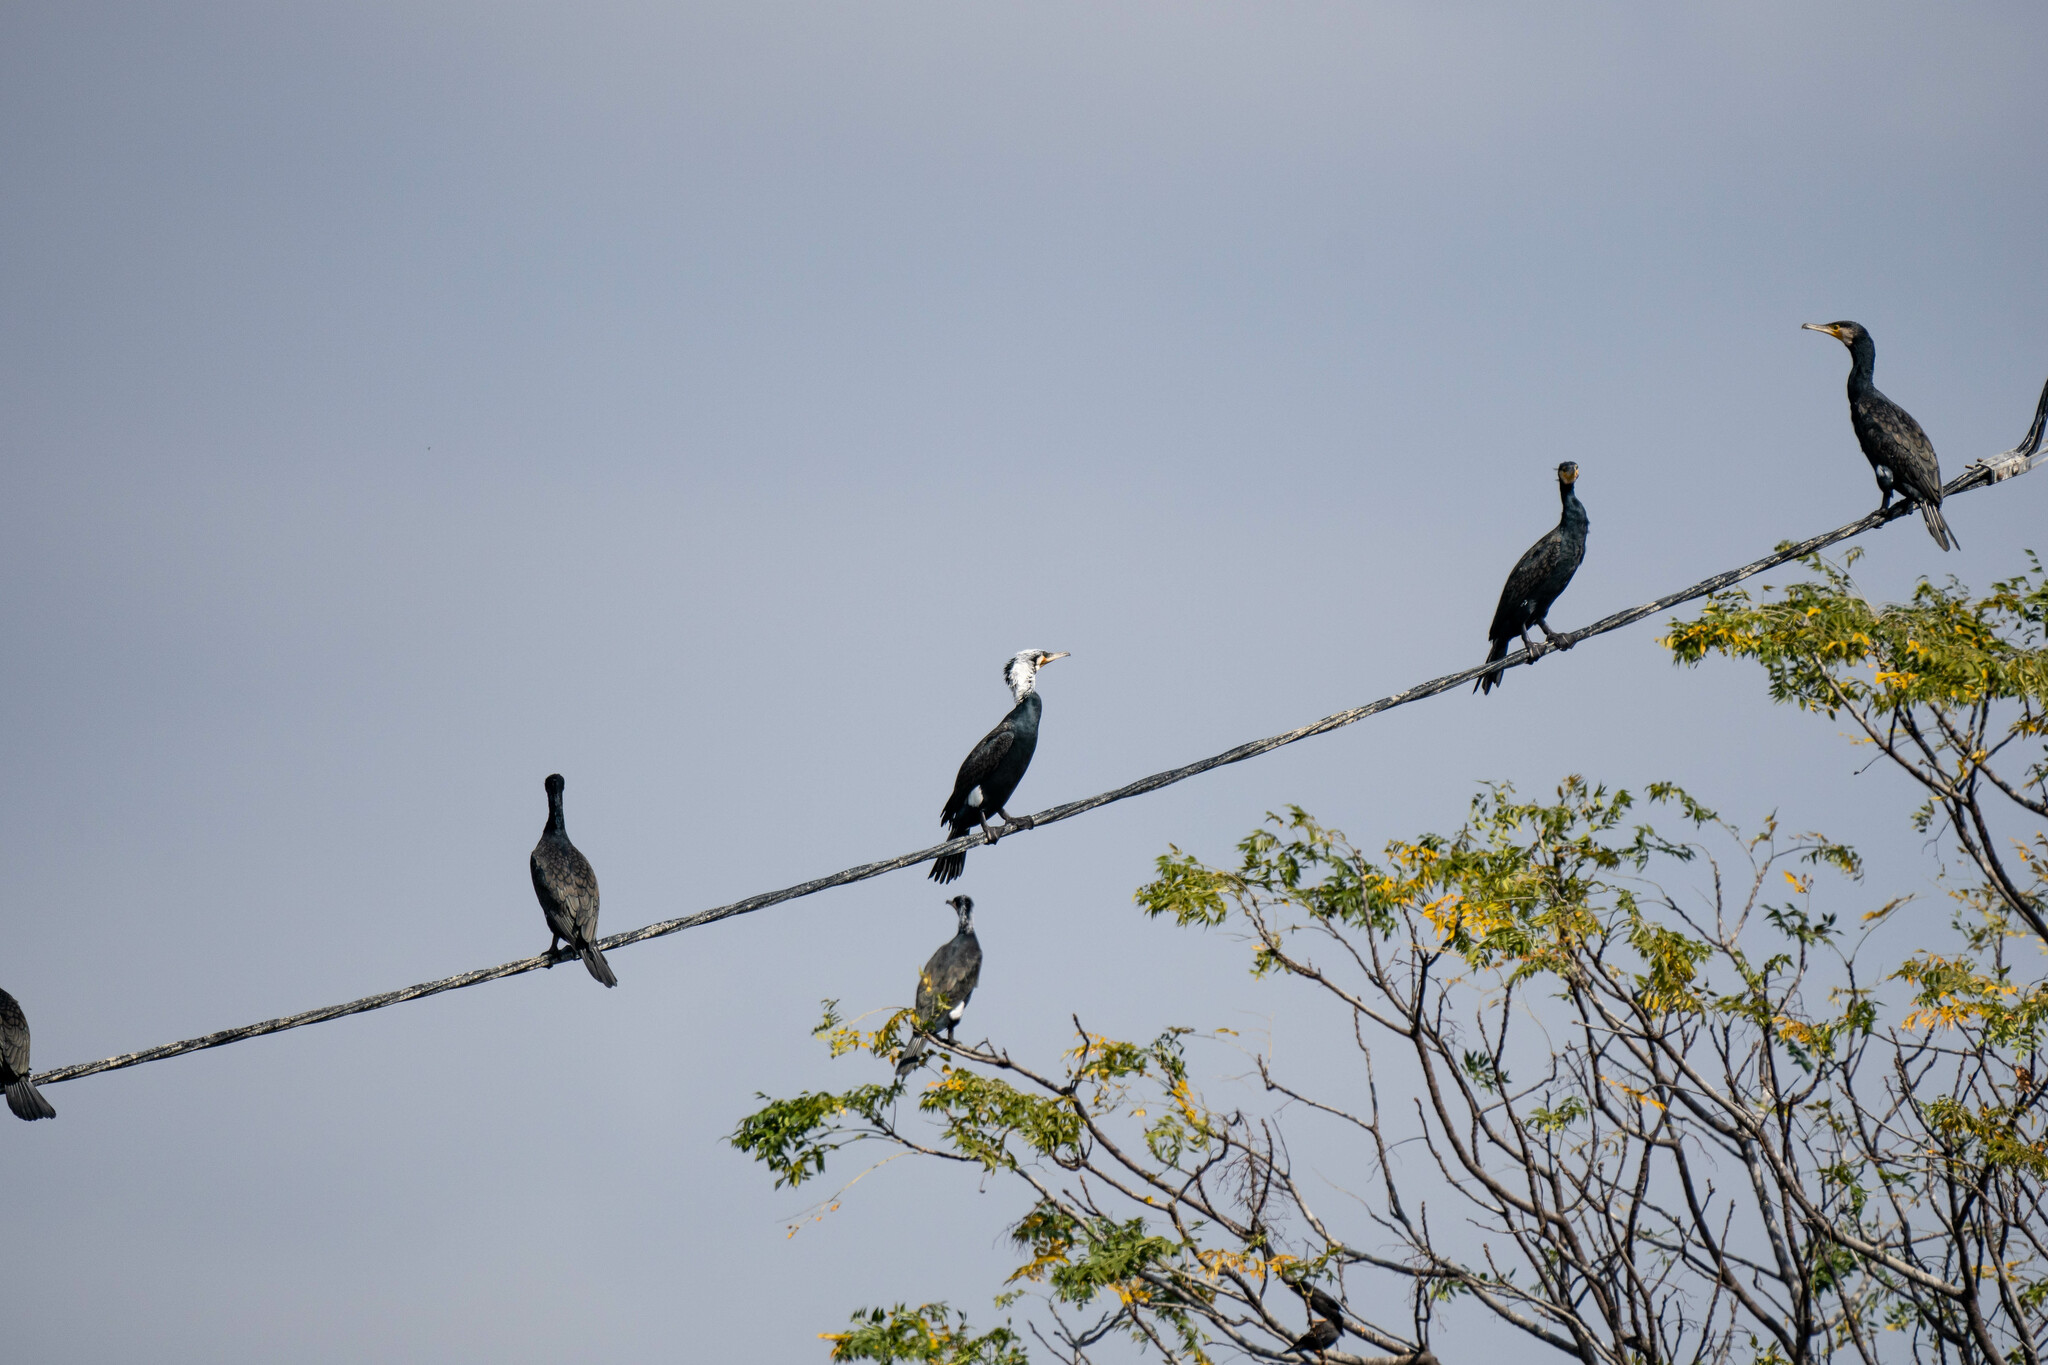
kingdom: Animalia
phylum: Chordata
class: Aves
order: Suliformes
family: Phalacrocoracidae
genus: Phalacrocorax
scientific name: Phalacrocorax carbo
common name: Great cormorant
